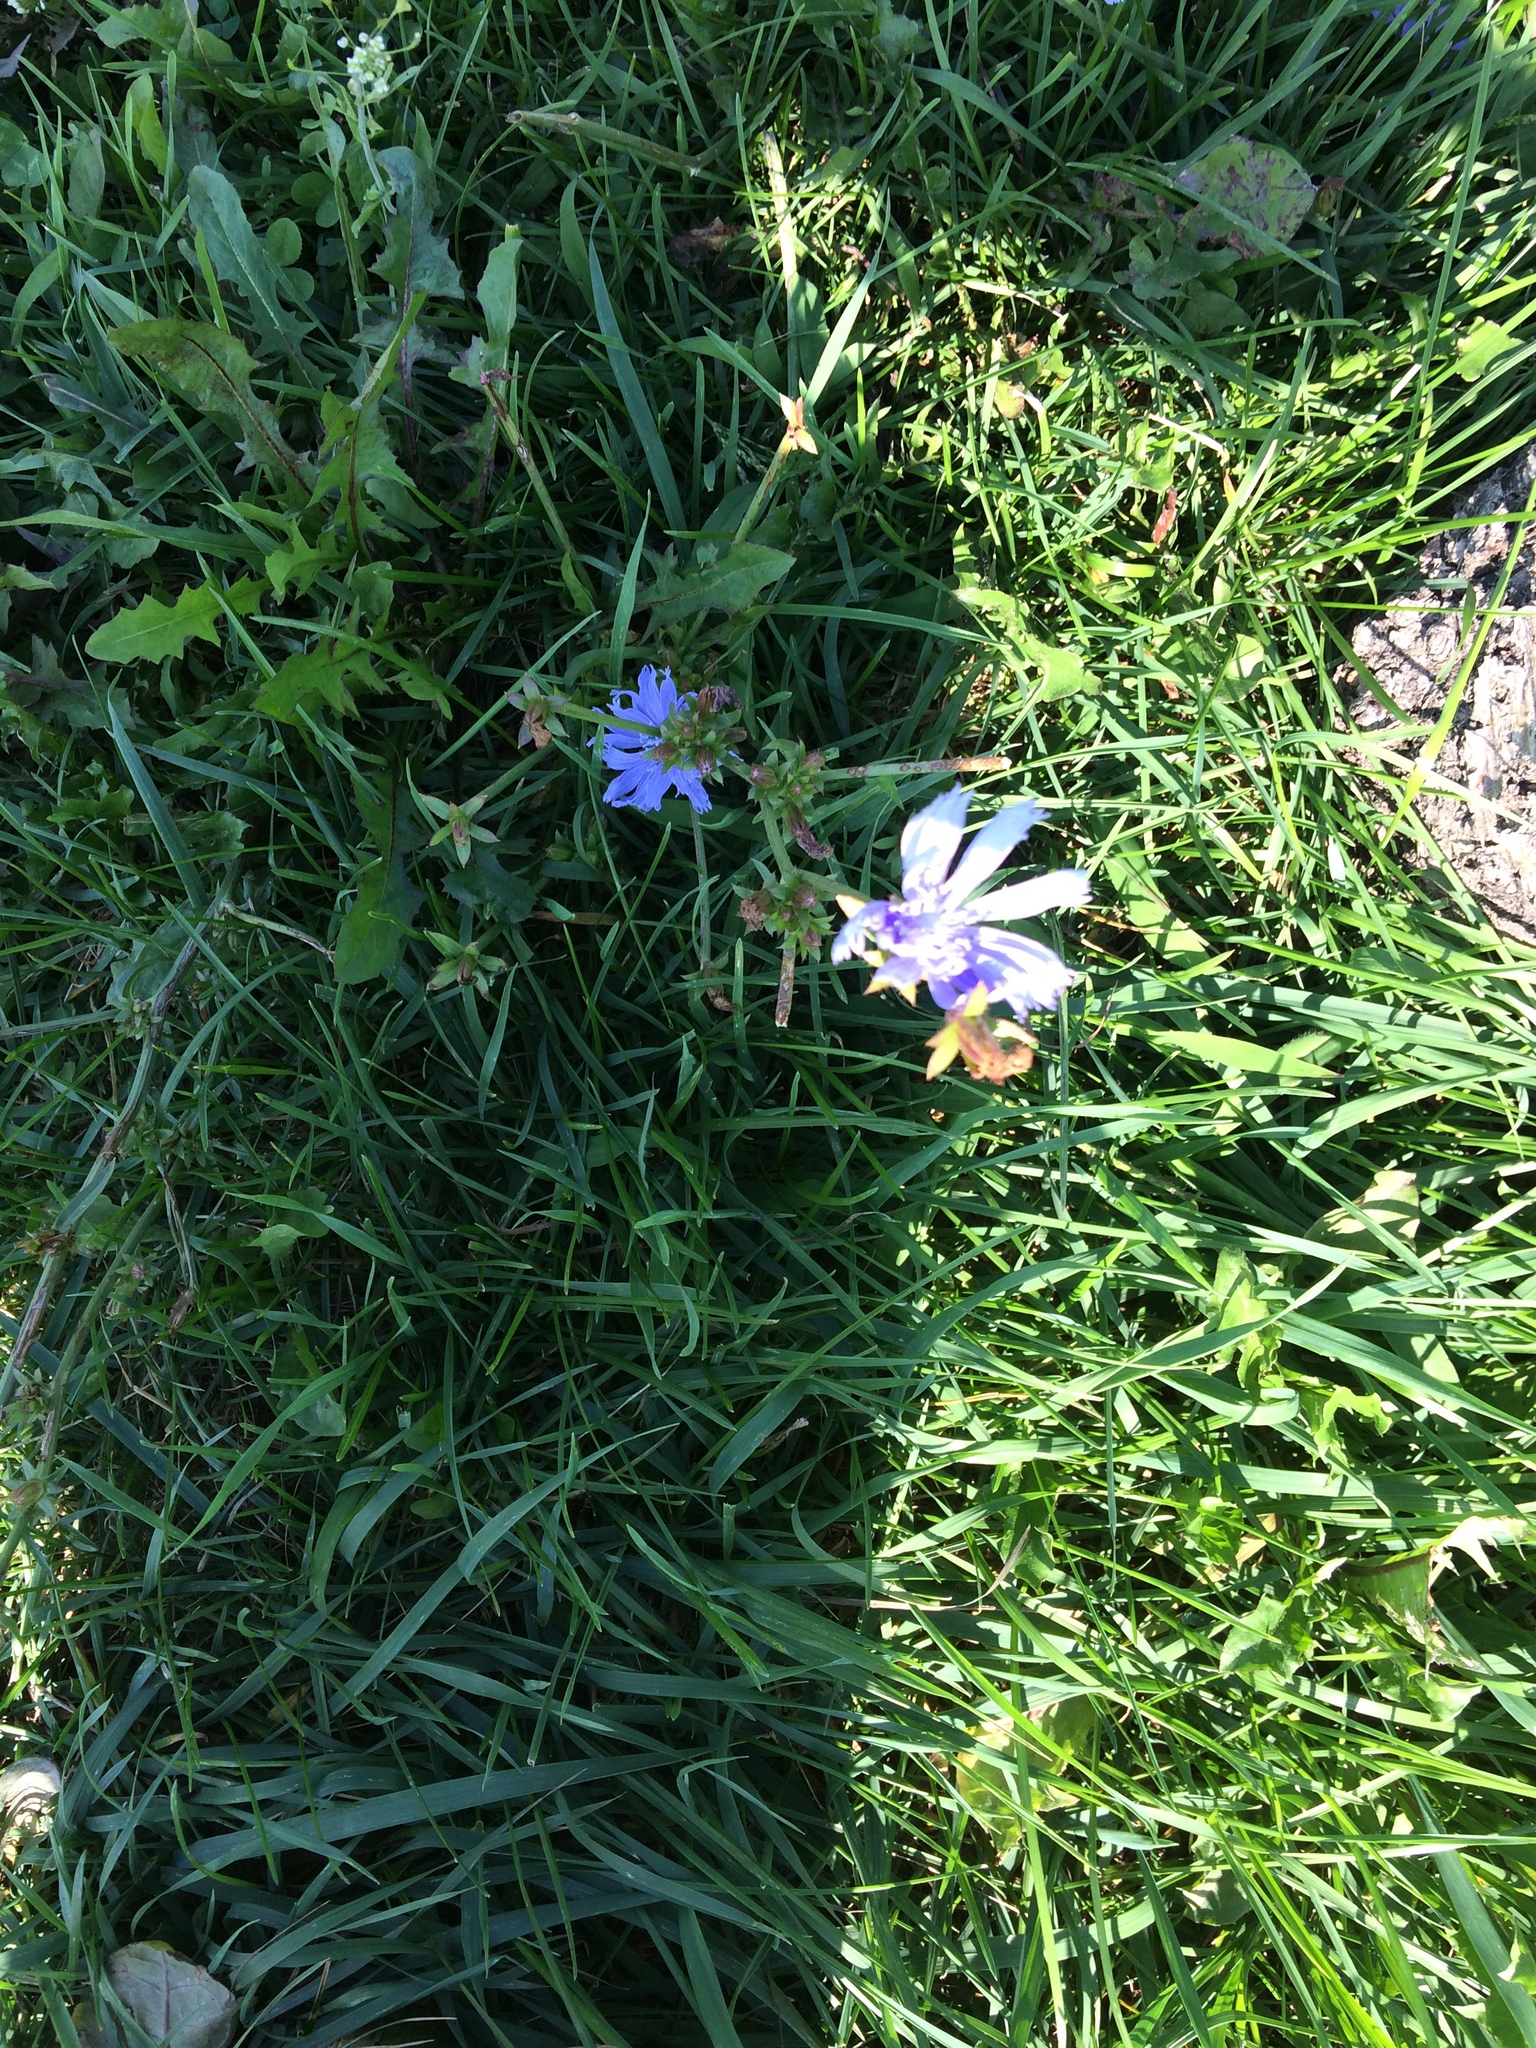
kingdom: Plantae
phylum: Tracheophyta
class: Magnoliopsida
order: Asterales
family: Asteraceae
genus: Cichorium
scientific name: Cichorium intybus
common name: Chicory
